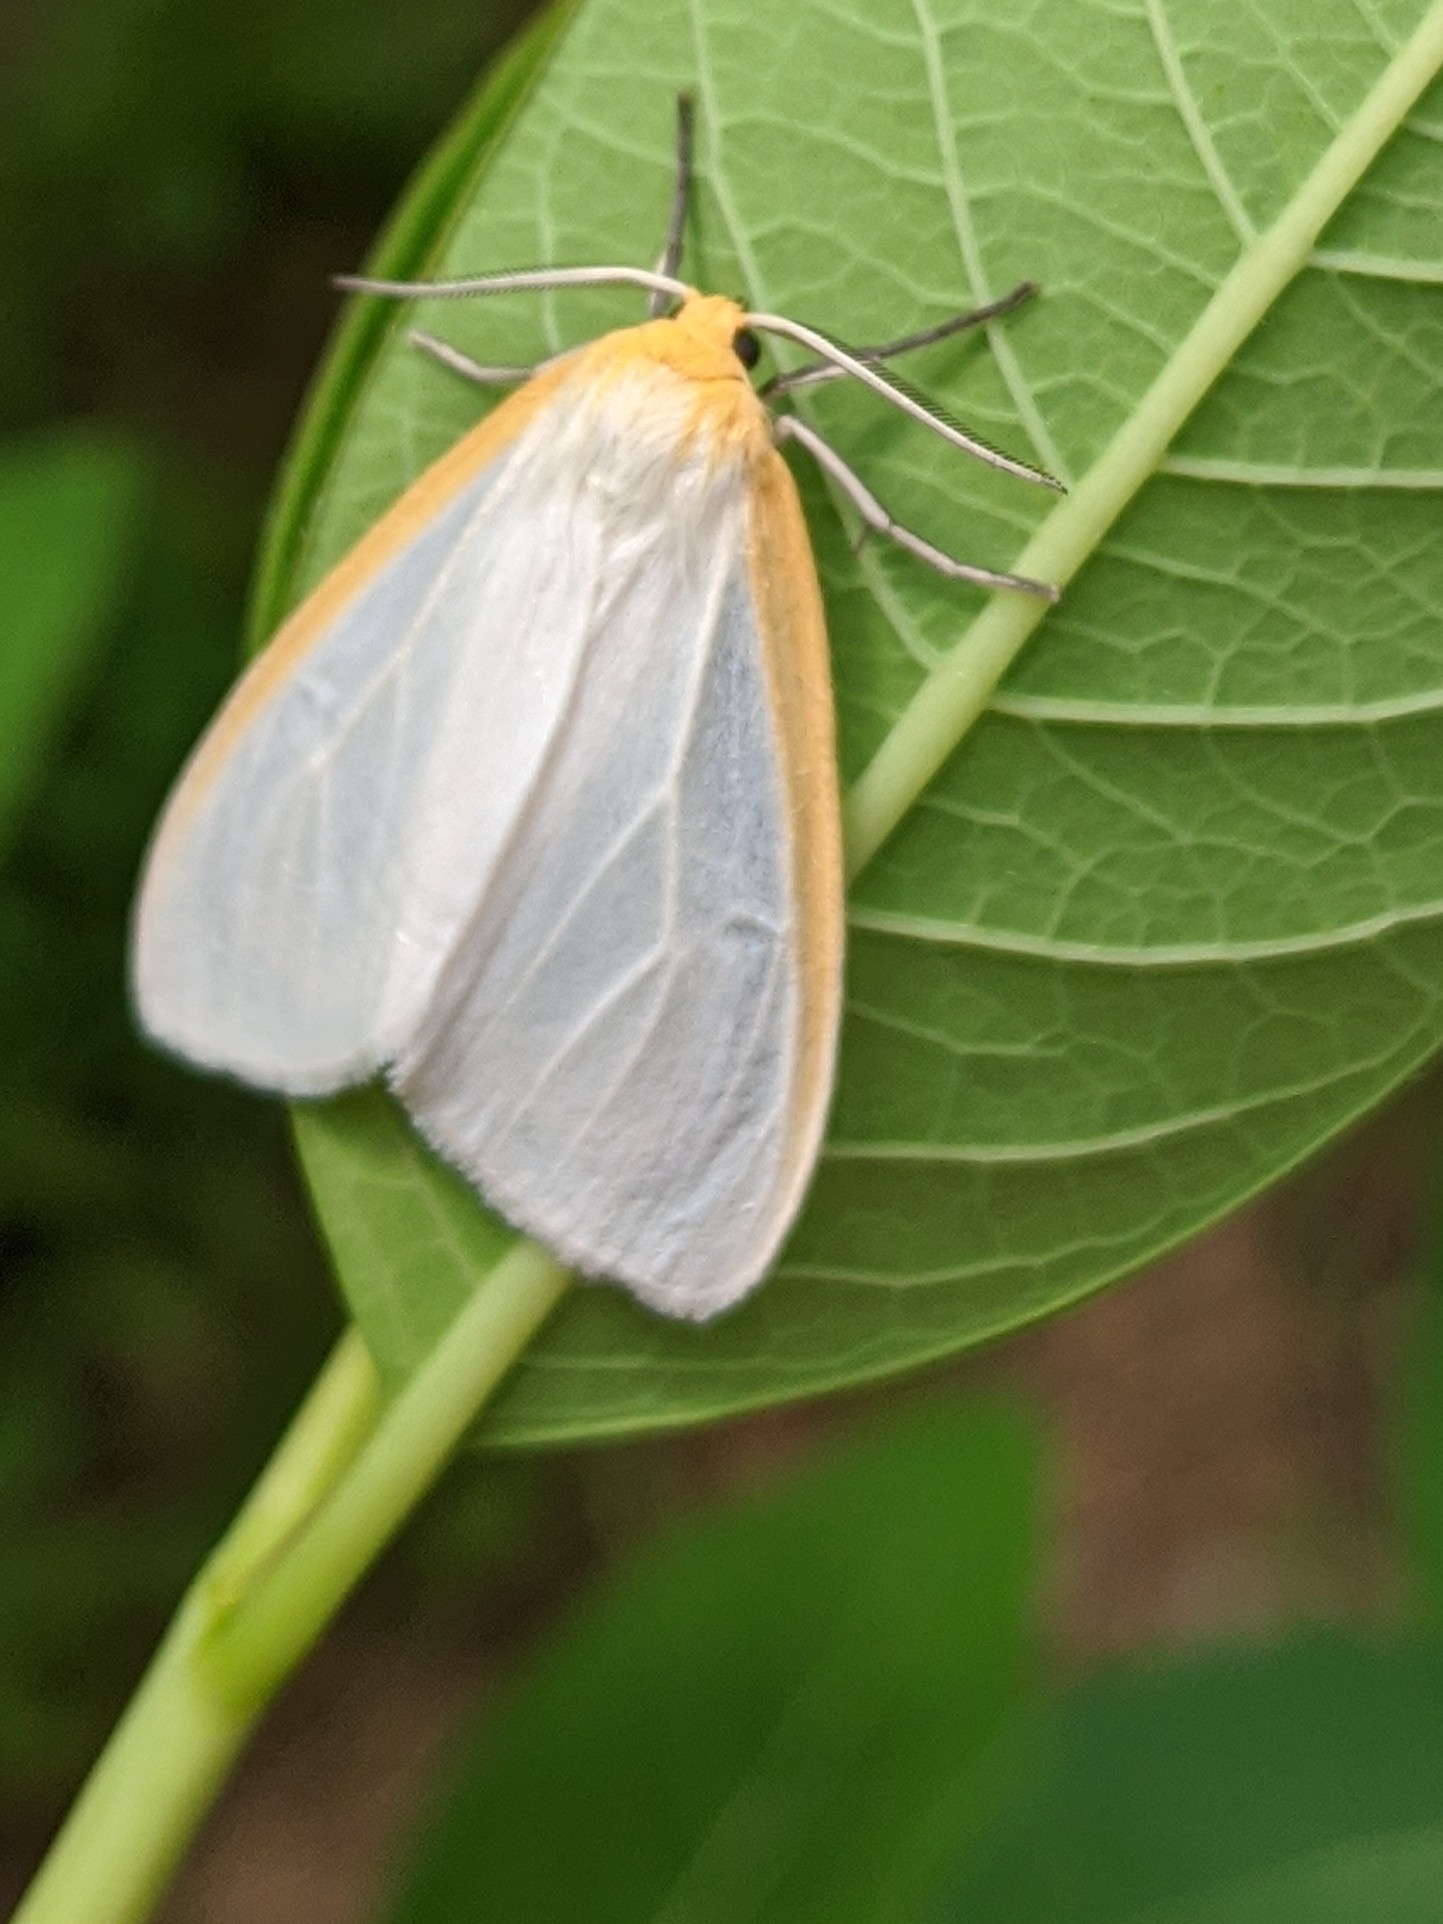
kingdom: Animalia
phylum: Arthropoda
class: Insecta
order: Lepidoptera
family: Erebidae
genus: Cycnia
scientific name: Cycnia tenera
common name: Delicate cycnia moth
